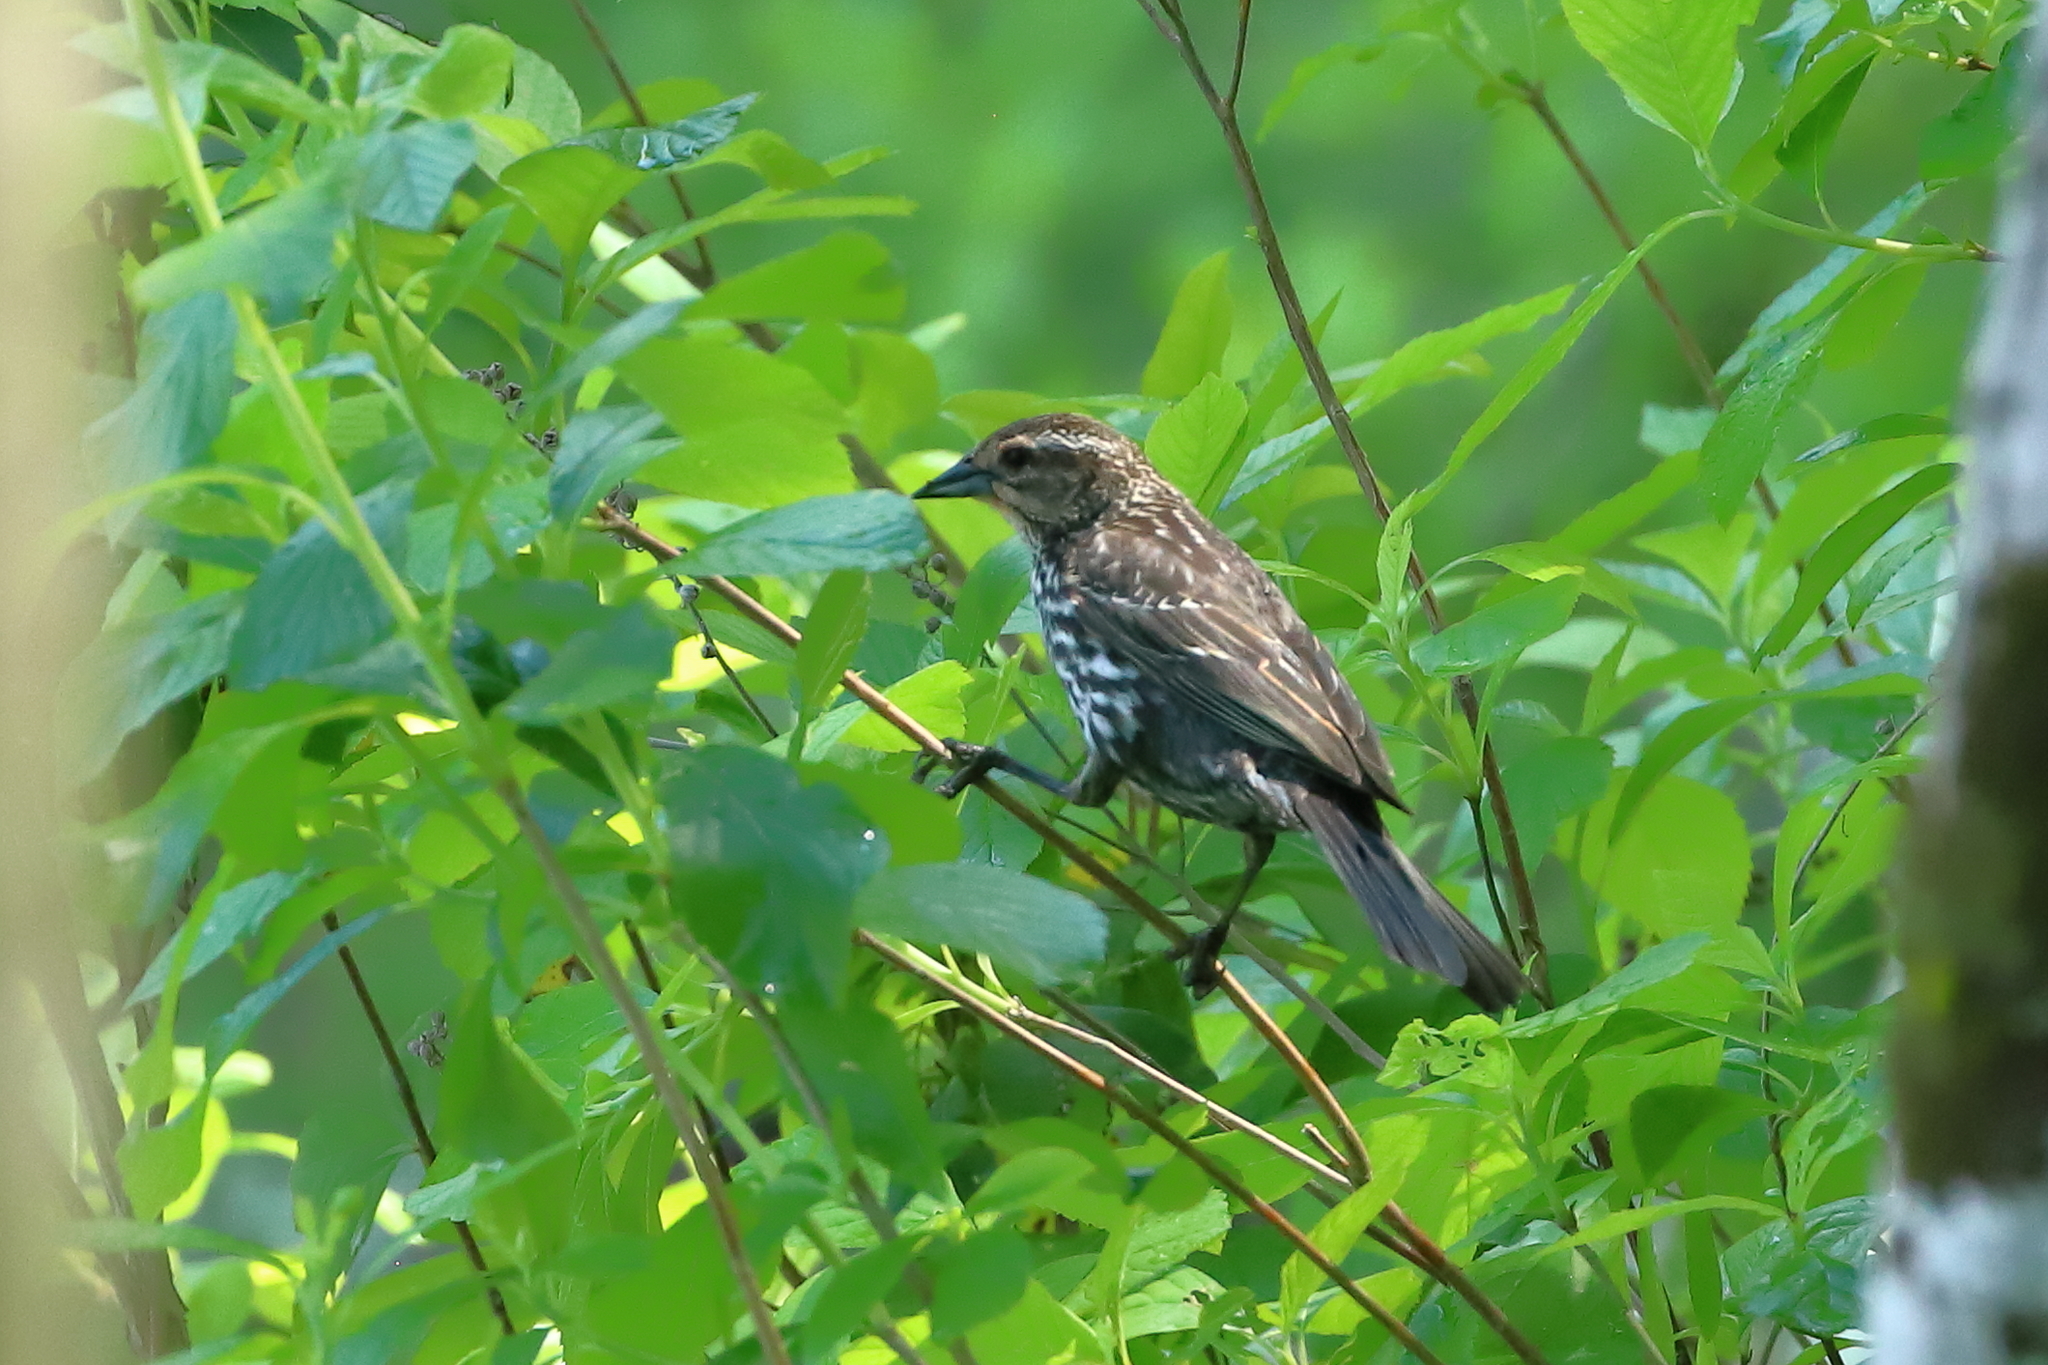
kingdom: Animalia
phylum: Chordata
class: Aves
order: Passeriformes
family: Icteridae
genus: Agelaius
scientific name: Agelaius phoeniceus
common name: Red-winged blackbird
